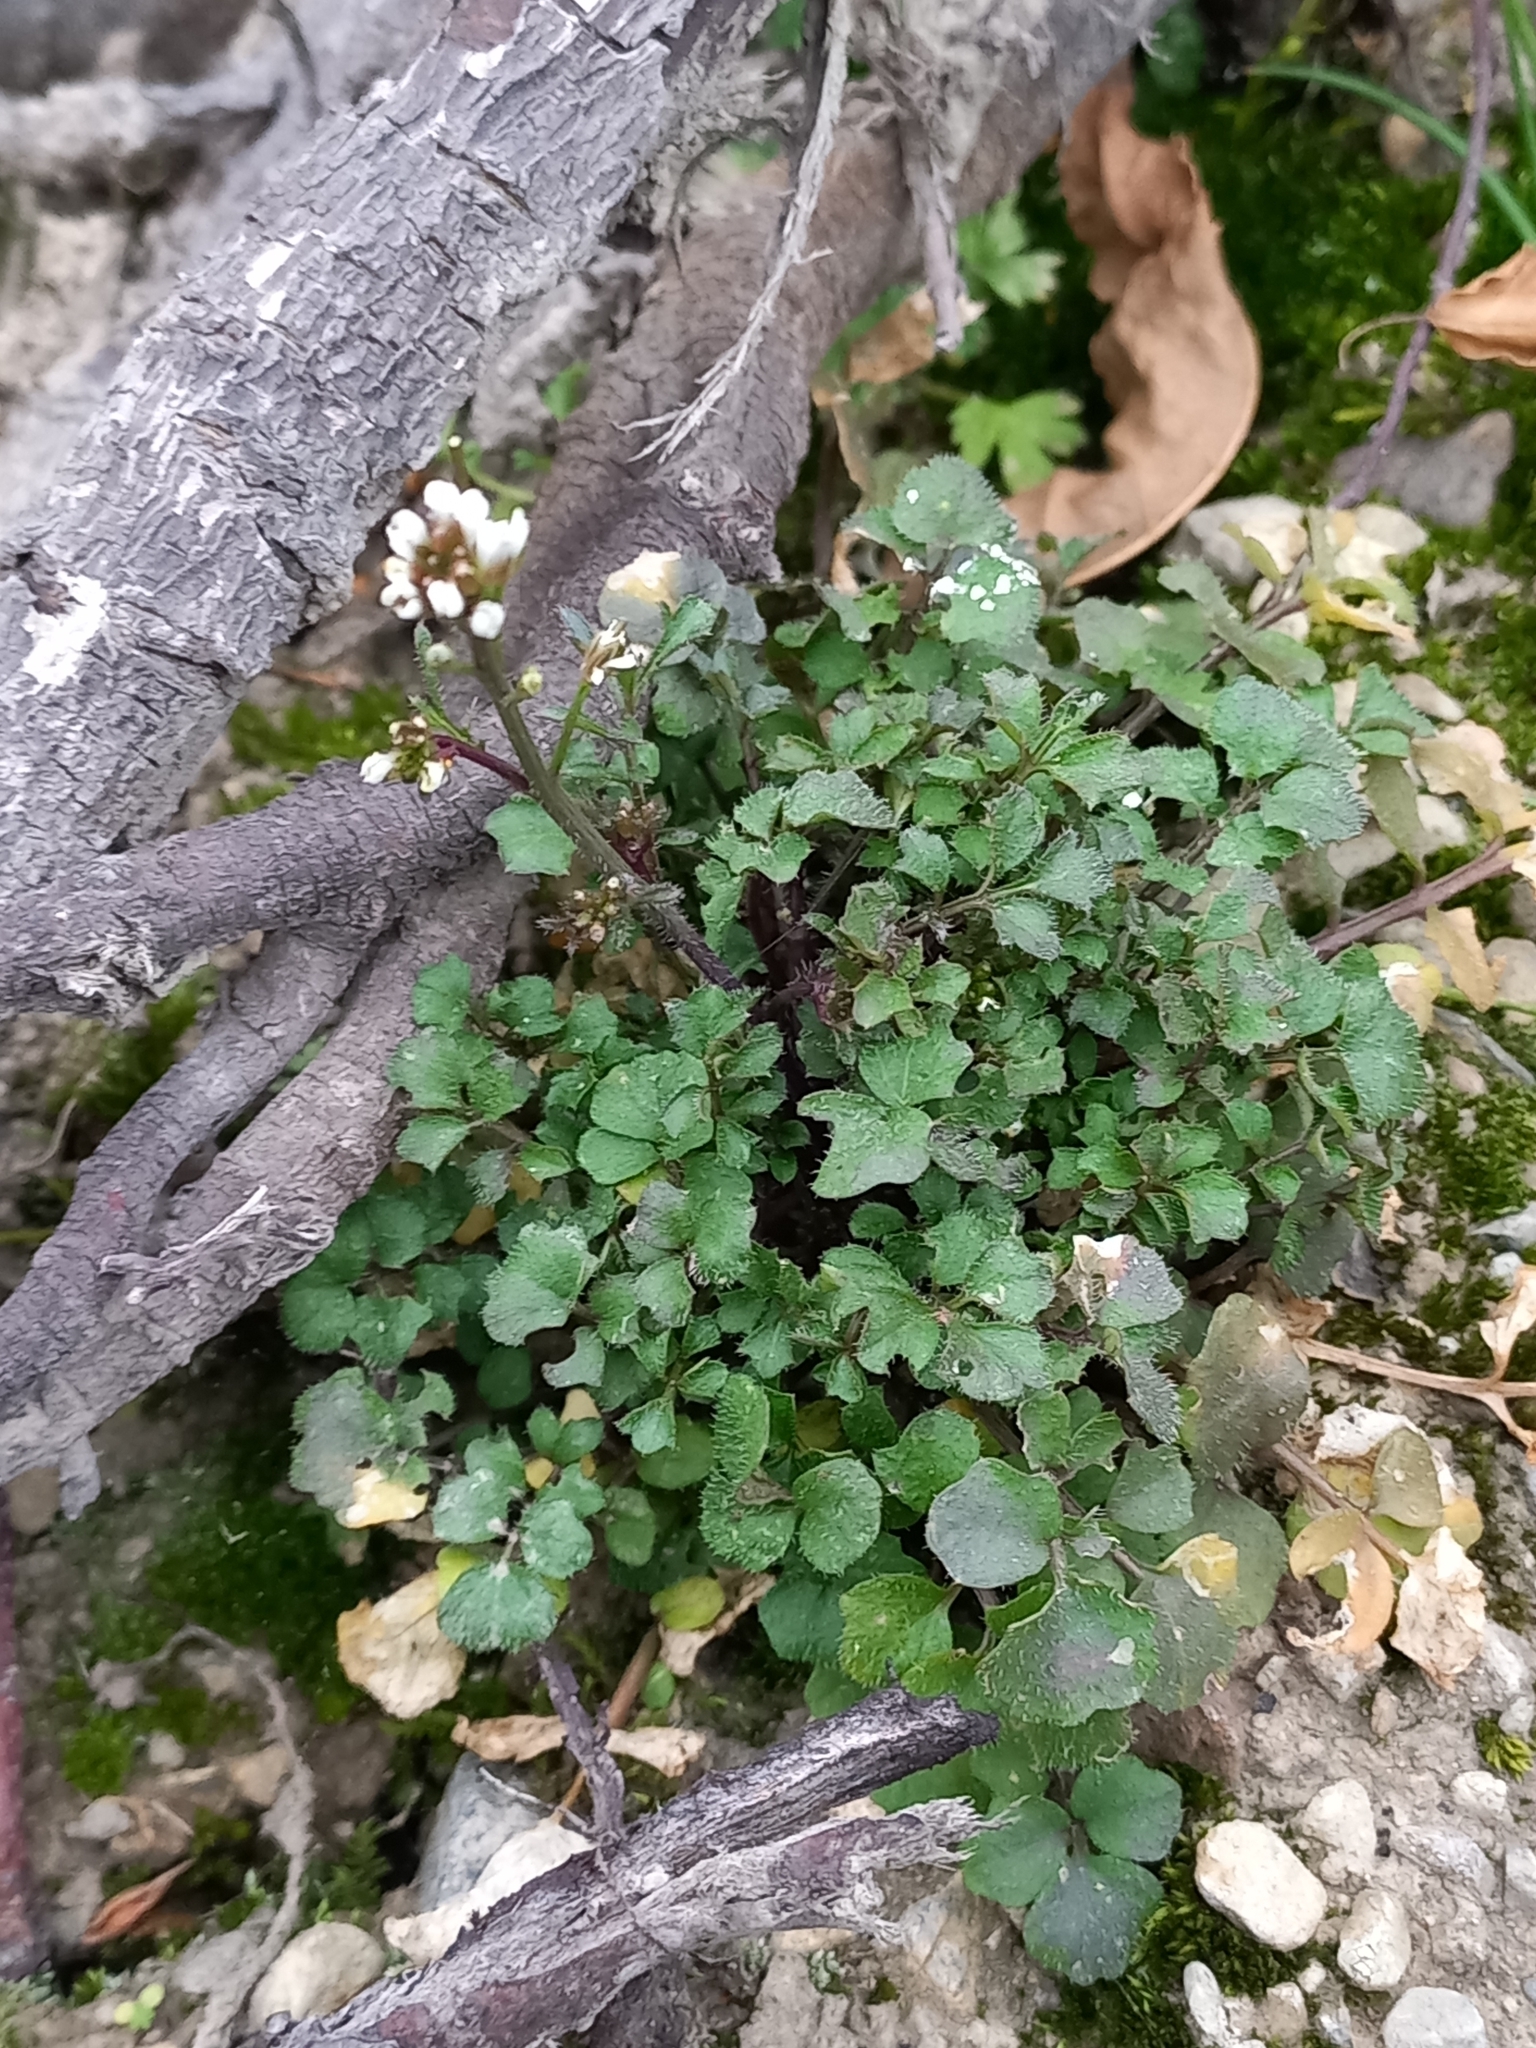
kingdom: Plantae
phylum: Tracheophyta
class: Magnoliopsida
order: Brassicales
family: Brassicaceae
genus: Cardamine
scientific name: Cardamine hirsuta
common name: Hairy bittercress
